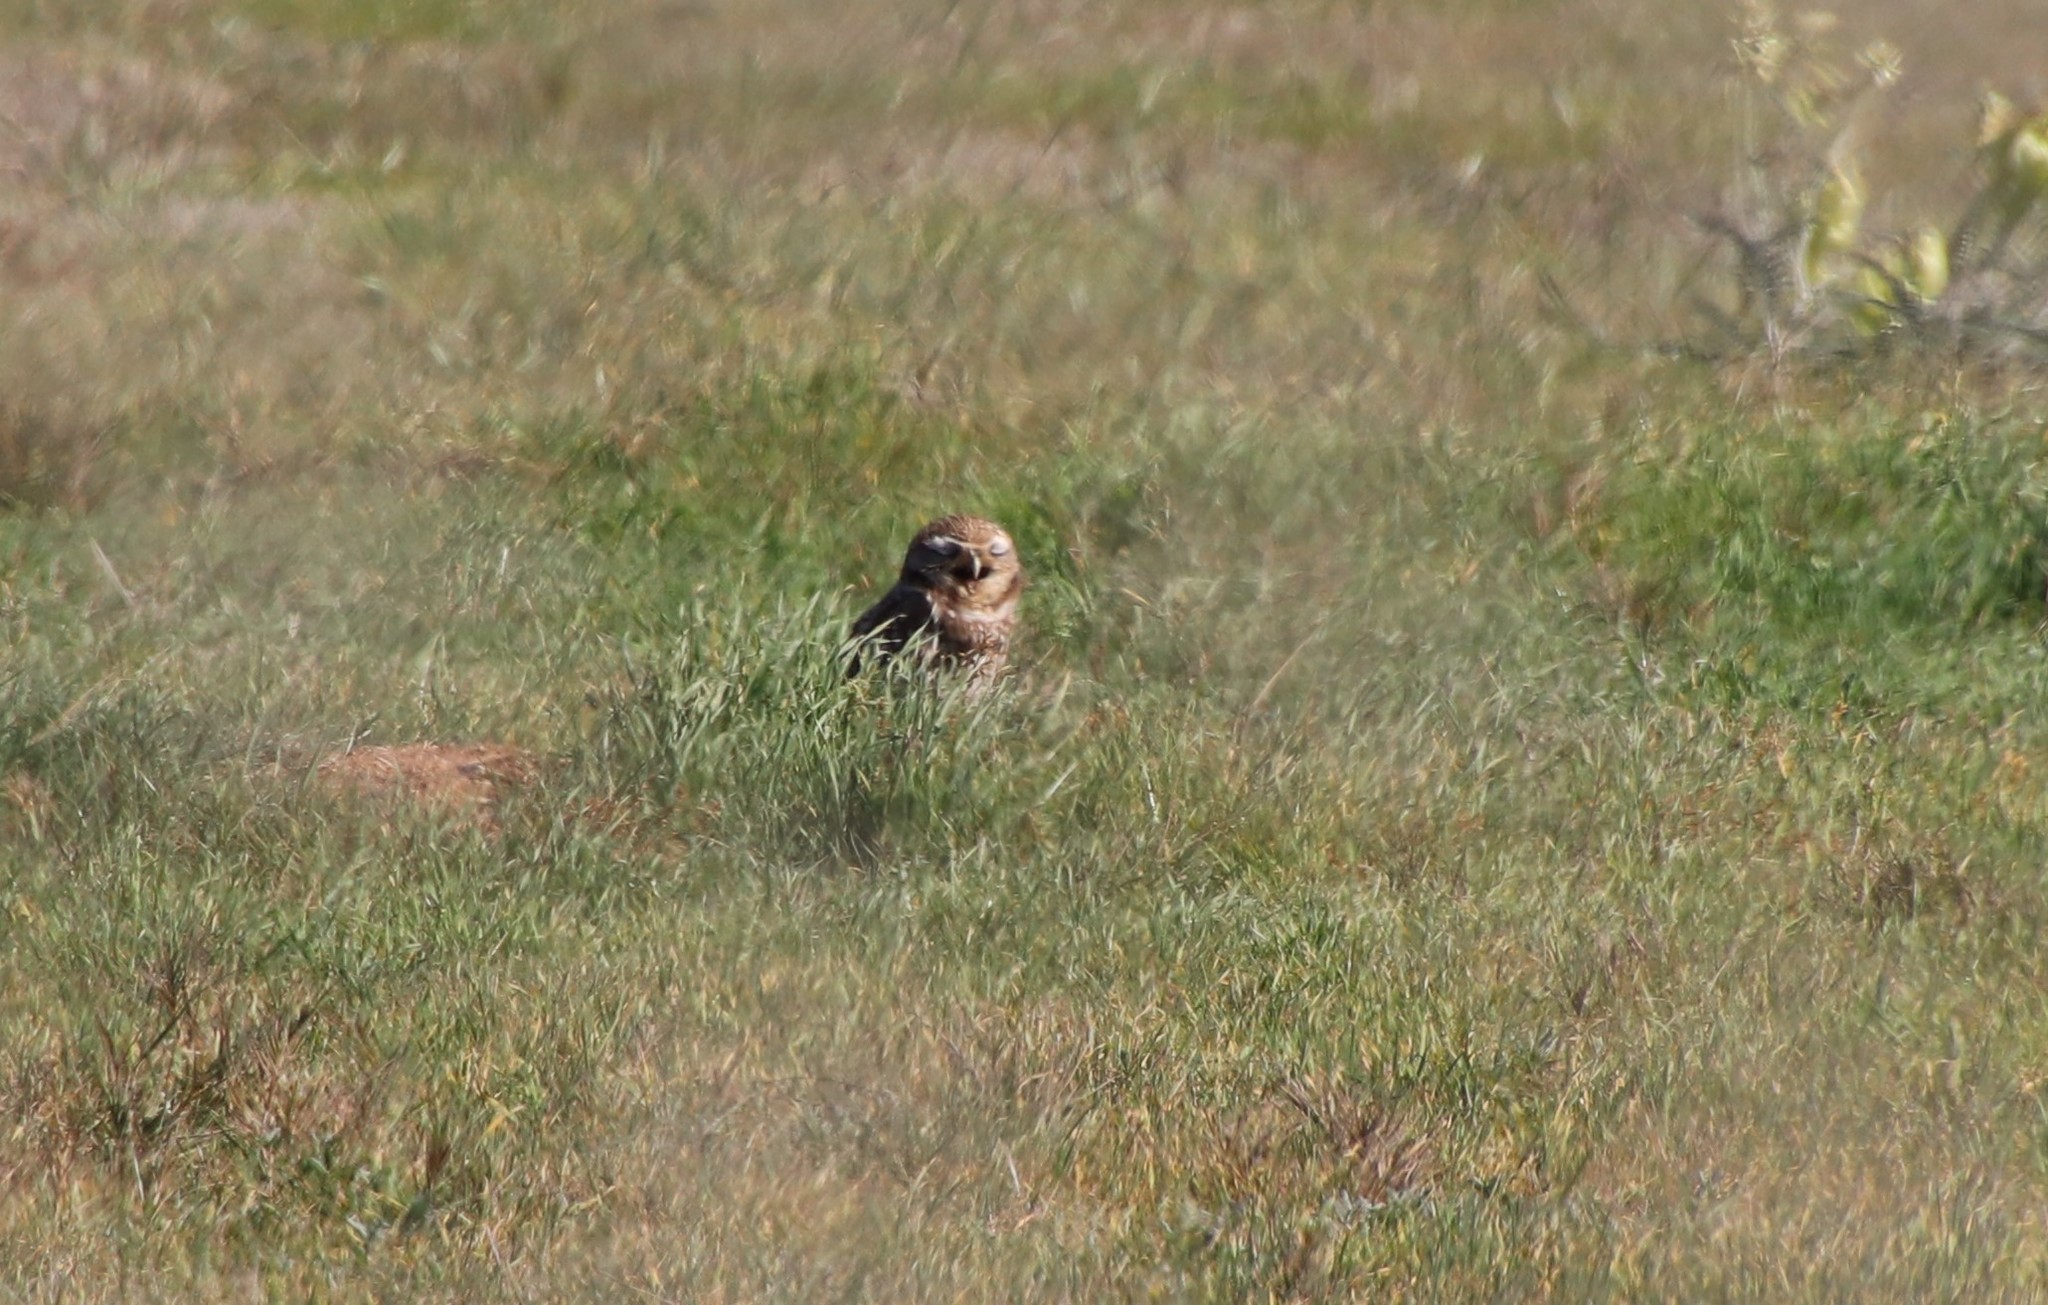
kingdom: Animalia
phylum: Chordata
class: Aves
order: Strigiformes
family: Strigidae
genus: Athene
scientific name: Athene cunicularia
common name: Burrowing owl
